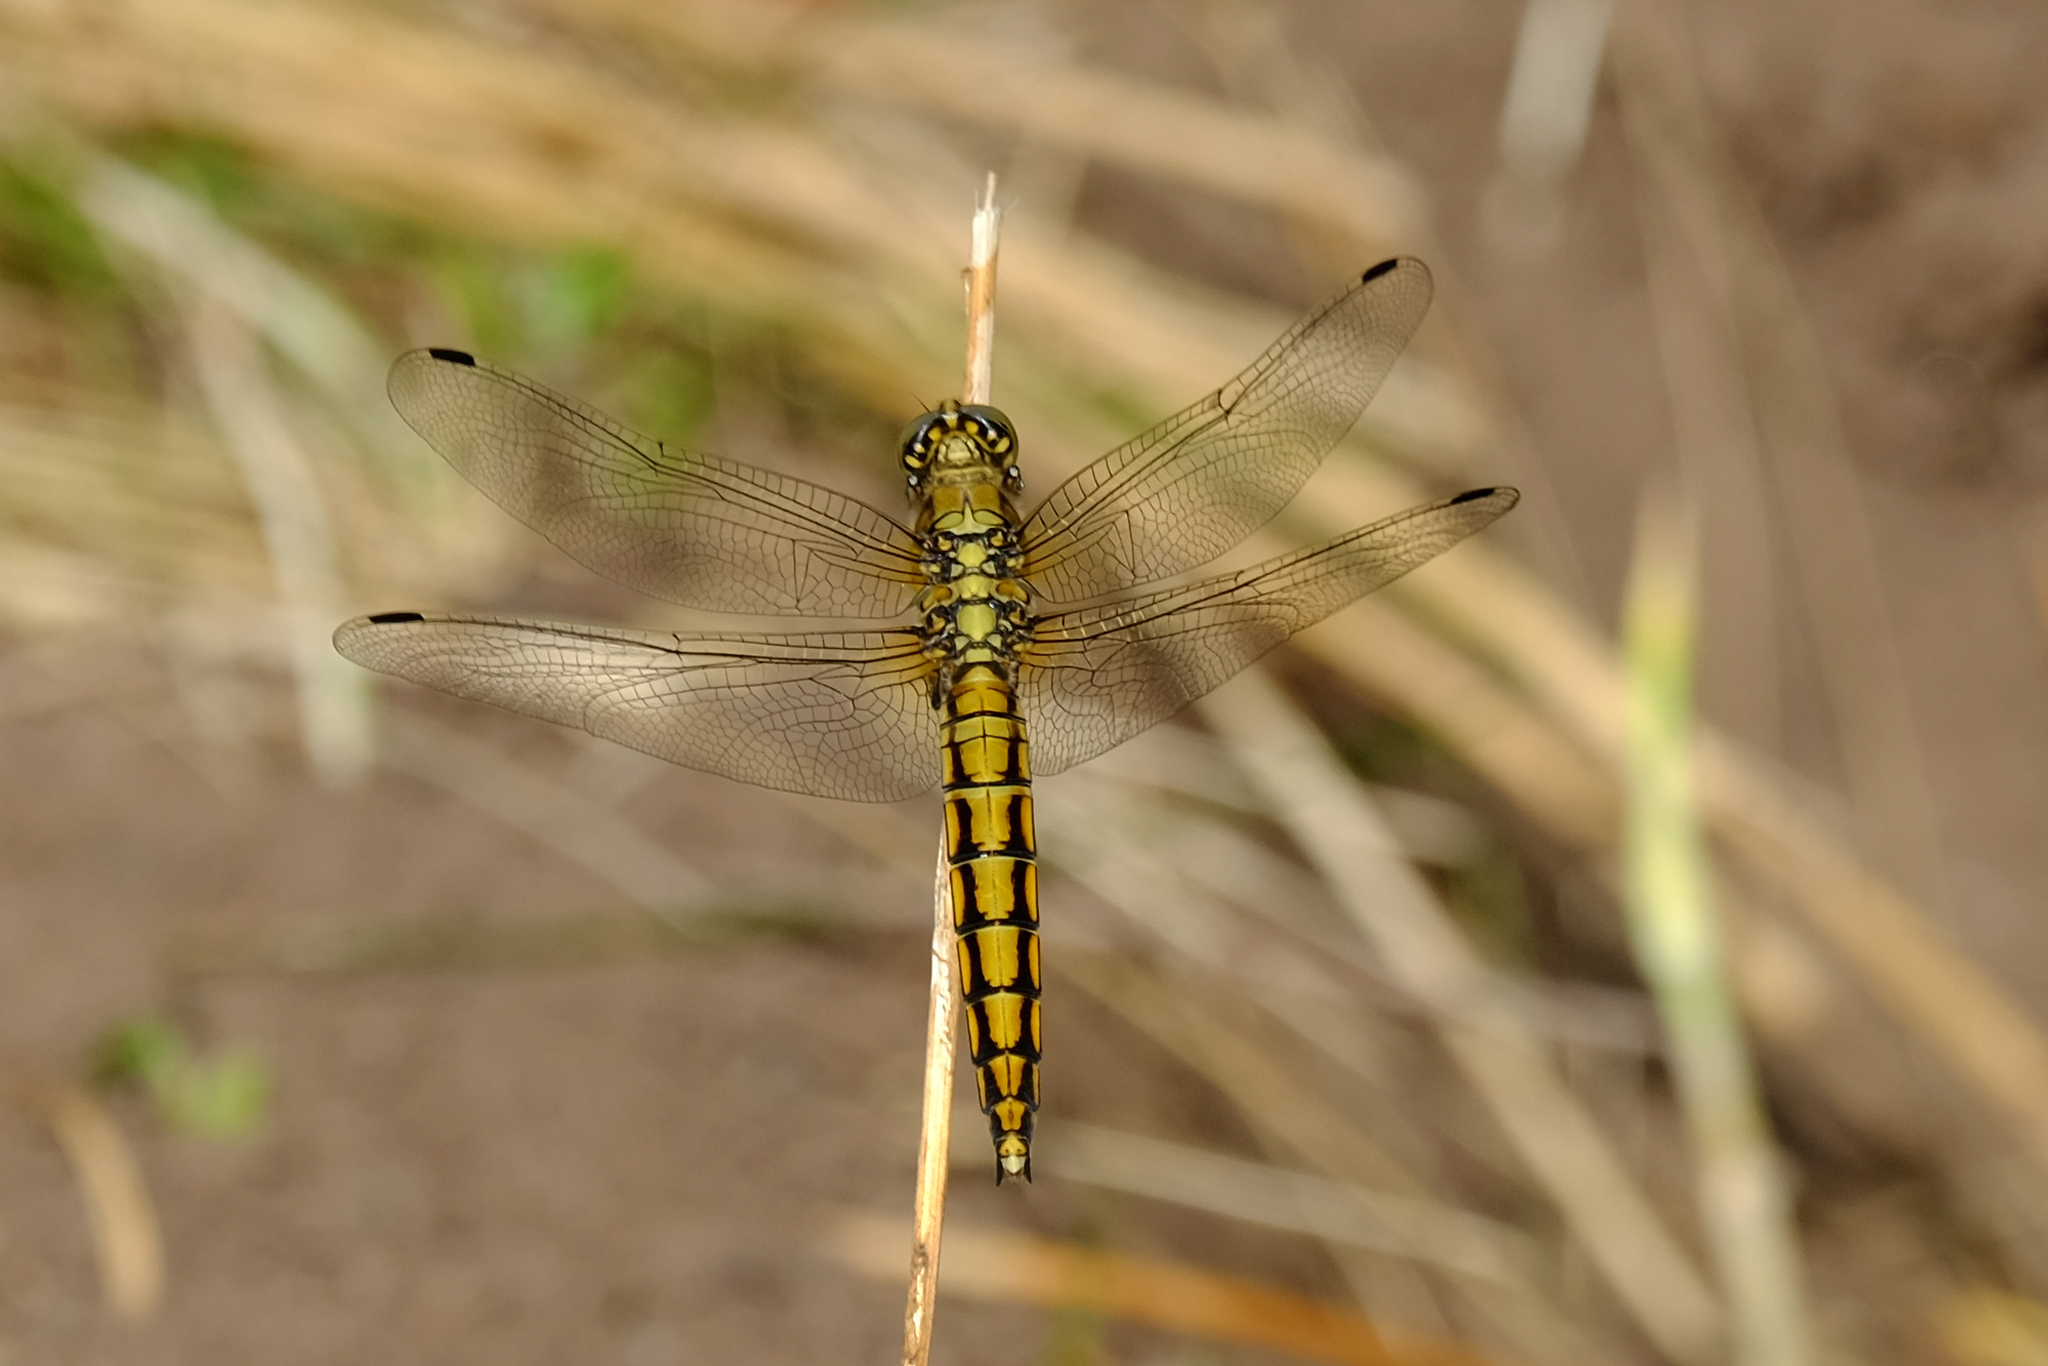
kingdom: Animalia
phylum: Arthropoda
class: Insecta
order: Odonata
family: Libellulidae
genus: Orthetrum
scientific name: Orthetrum cancellatum
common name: Black-tailed skimmer
